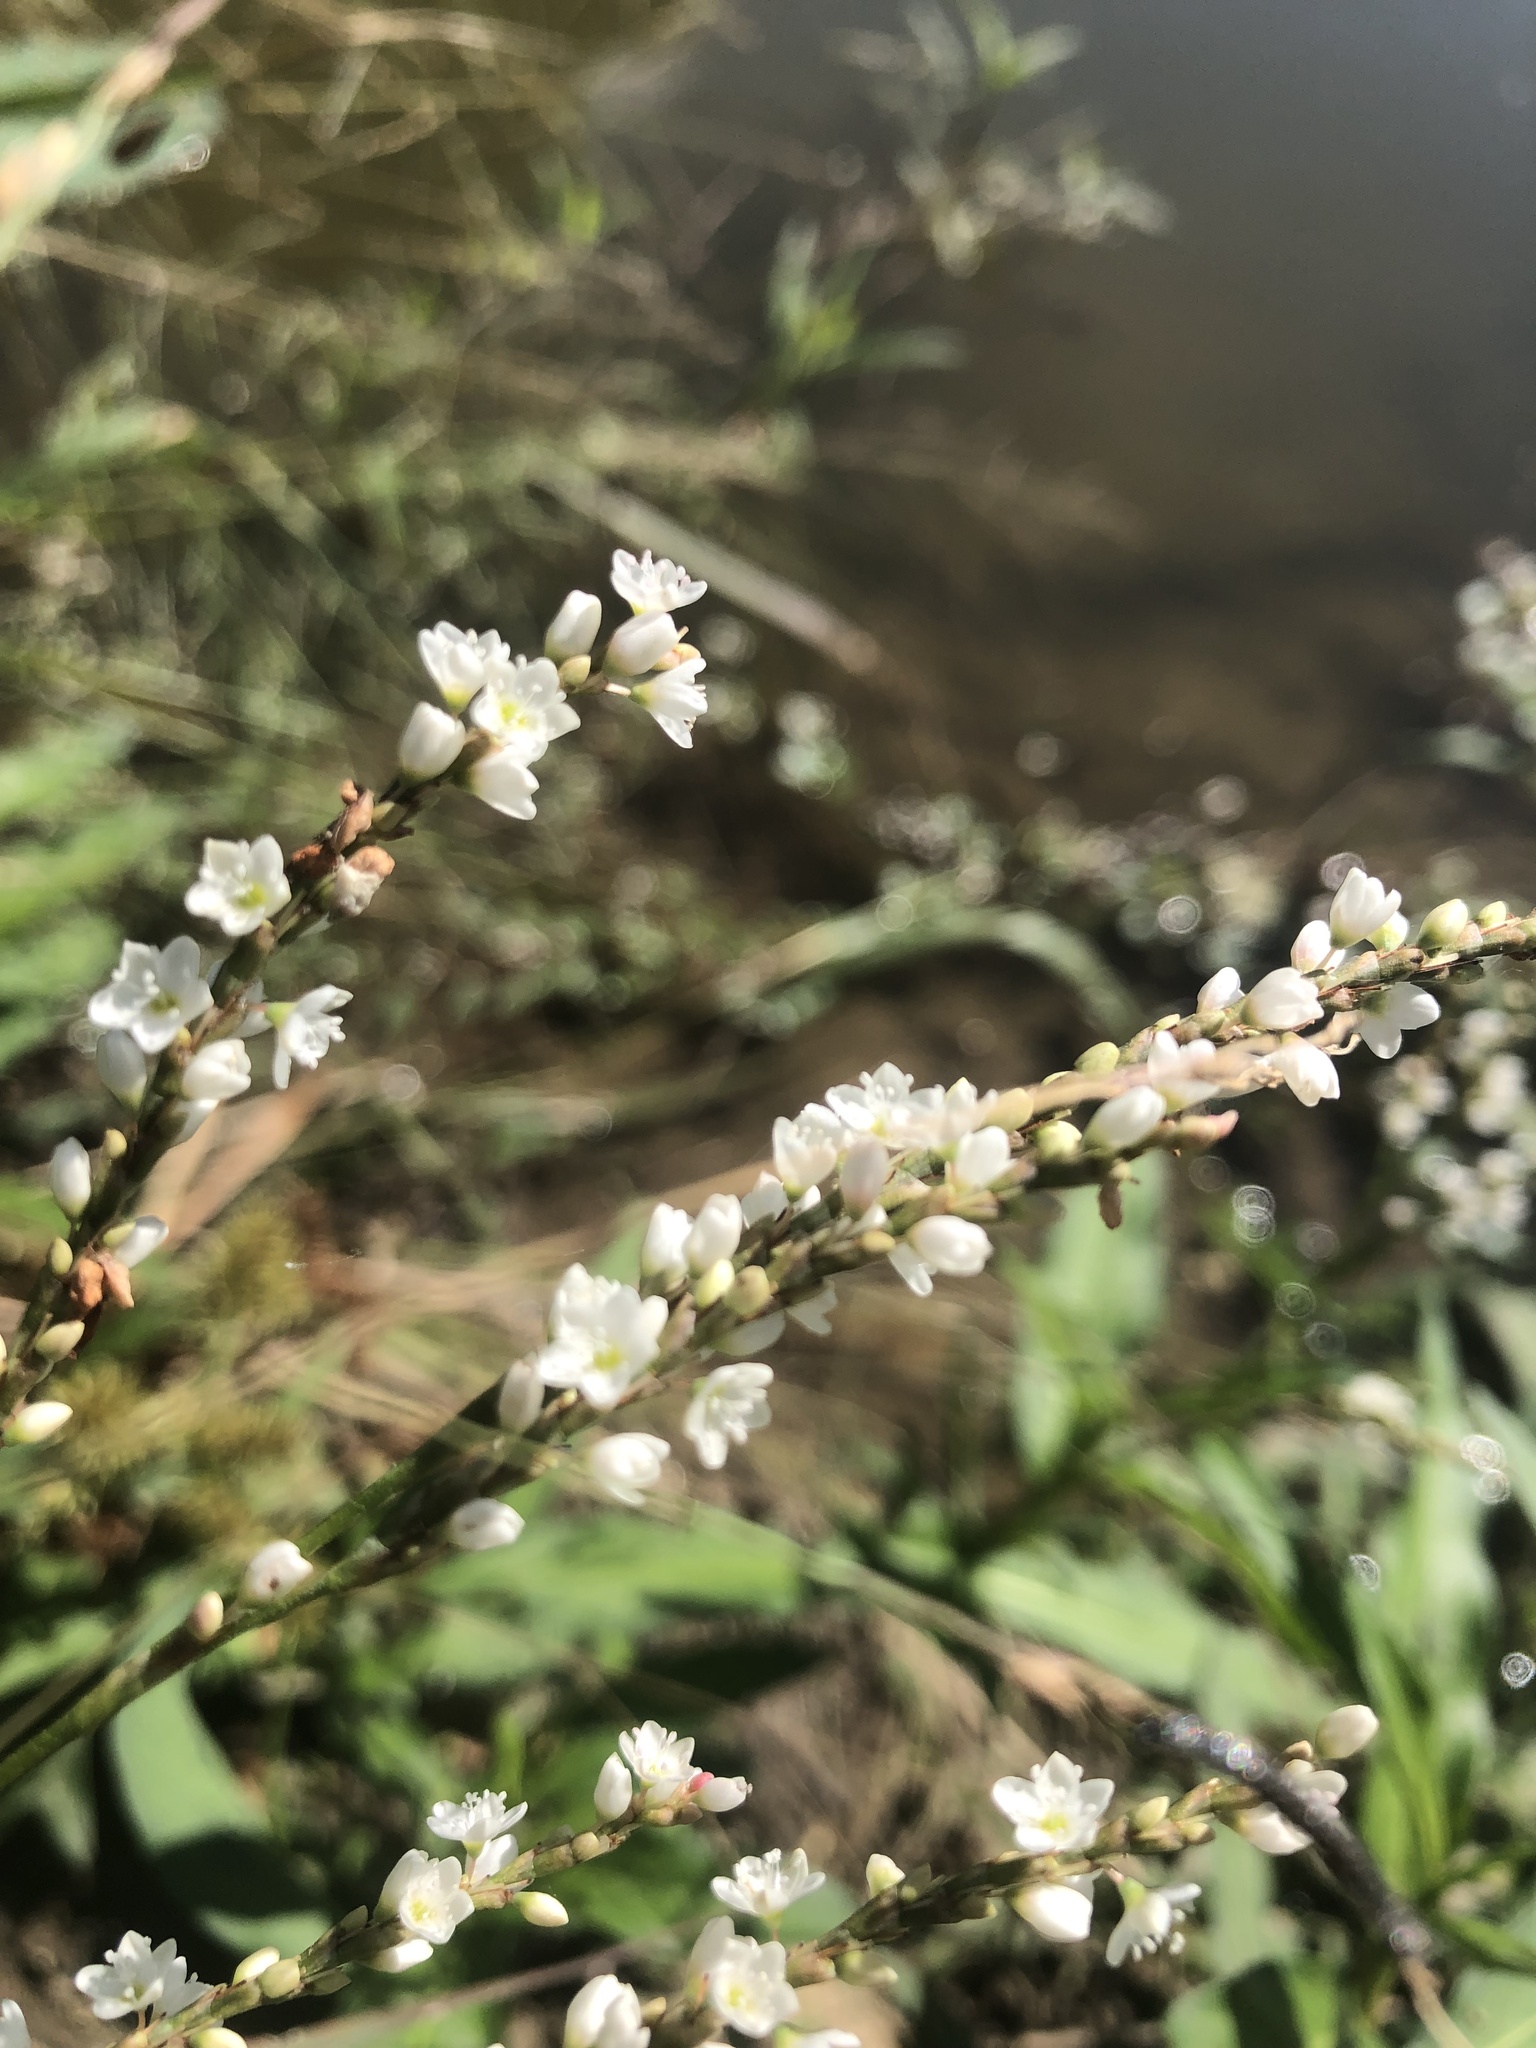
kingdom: Plantae
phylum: Tracheophyta
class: Magnoliopsida
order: Caryophyllales
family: Polygonaceae
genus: Persicaria
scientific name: Persicaria hydropiperoides
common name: Swamp smartweed
